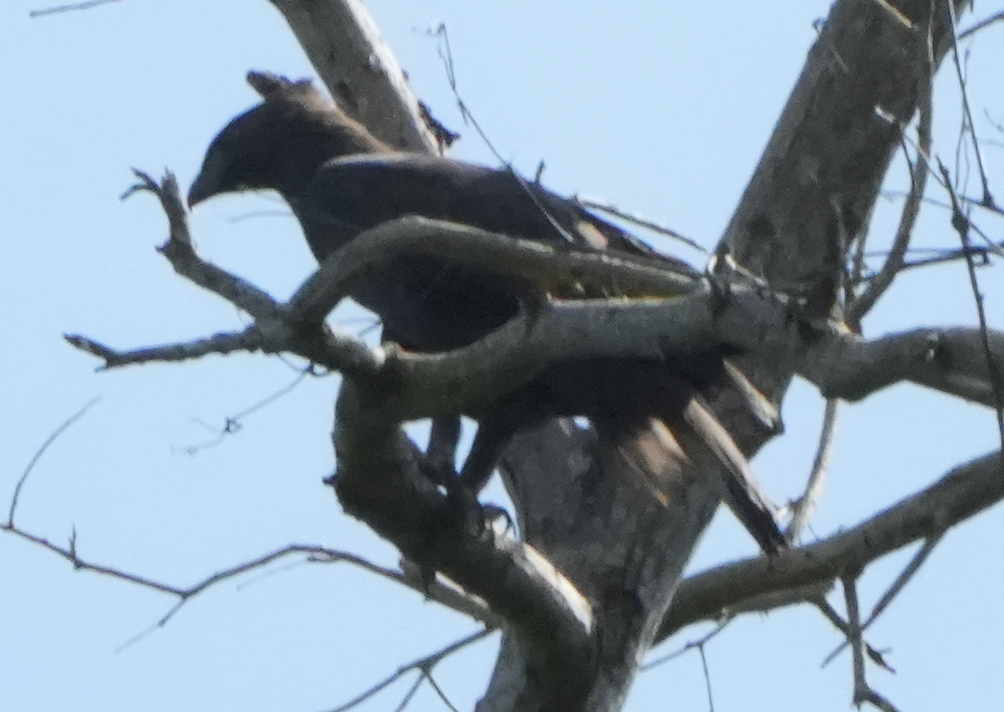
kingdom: Animalia
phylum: Chordata
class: Aves
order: Accipitriformes
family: Accipitridae
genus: Nisaetus
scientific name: Nisaetus cirrhatus
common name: Changeable hawk-eagle
